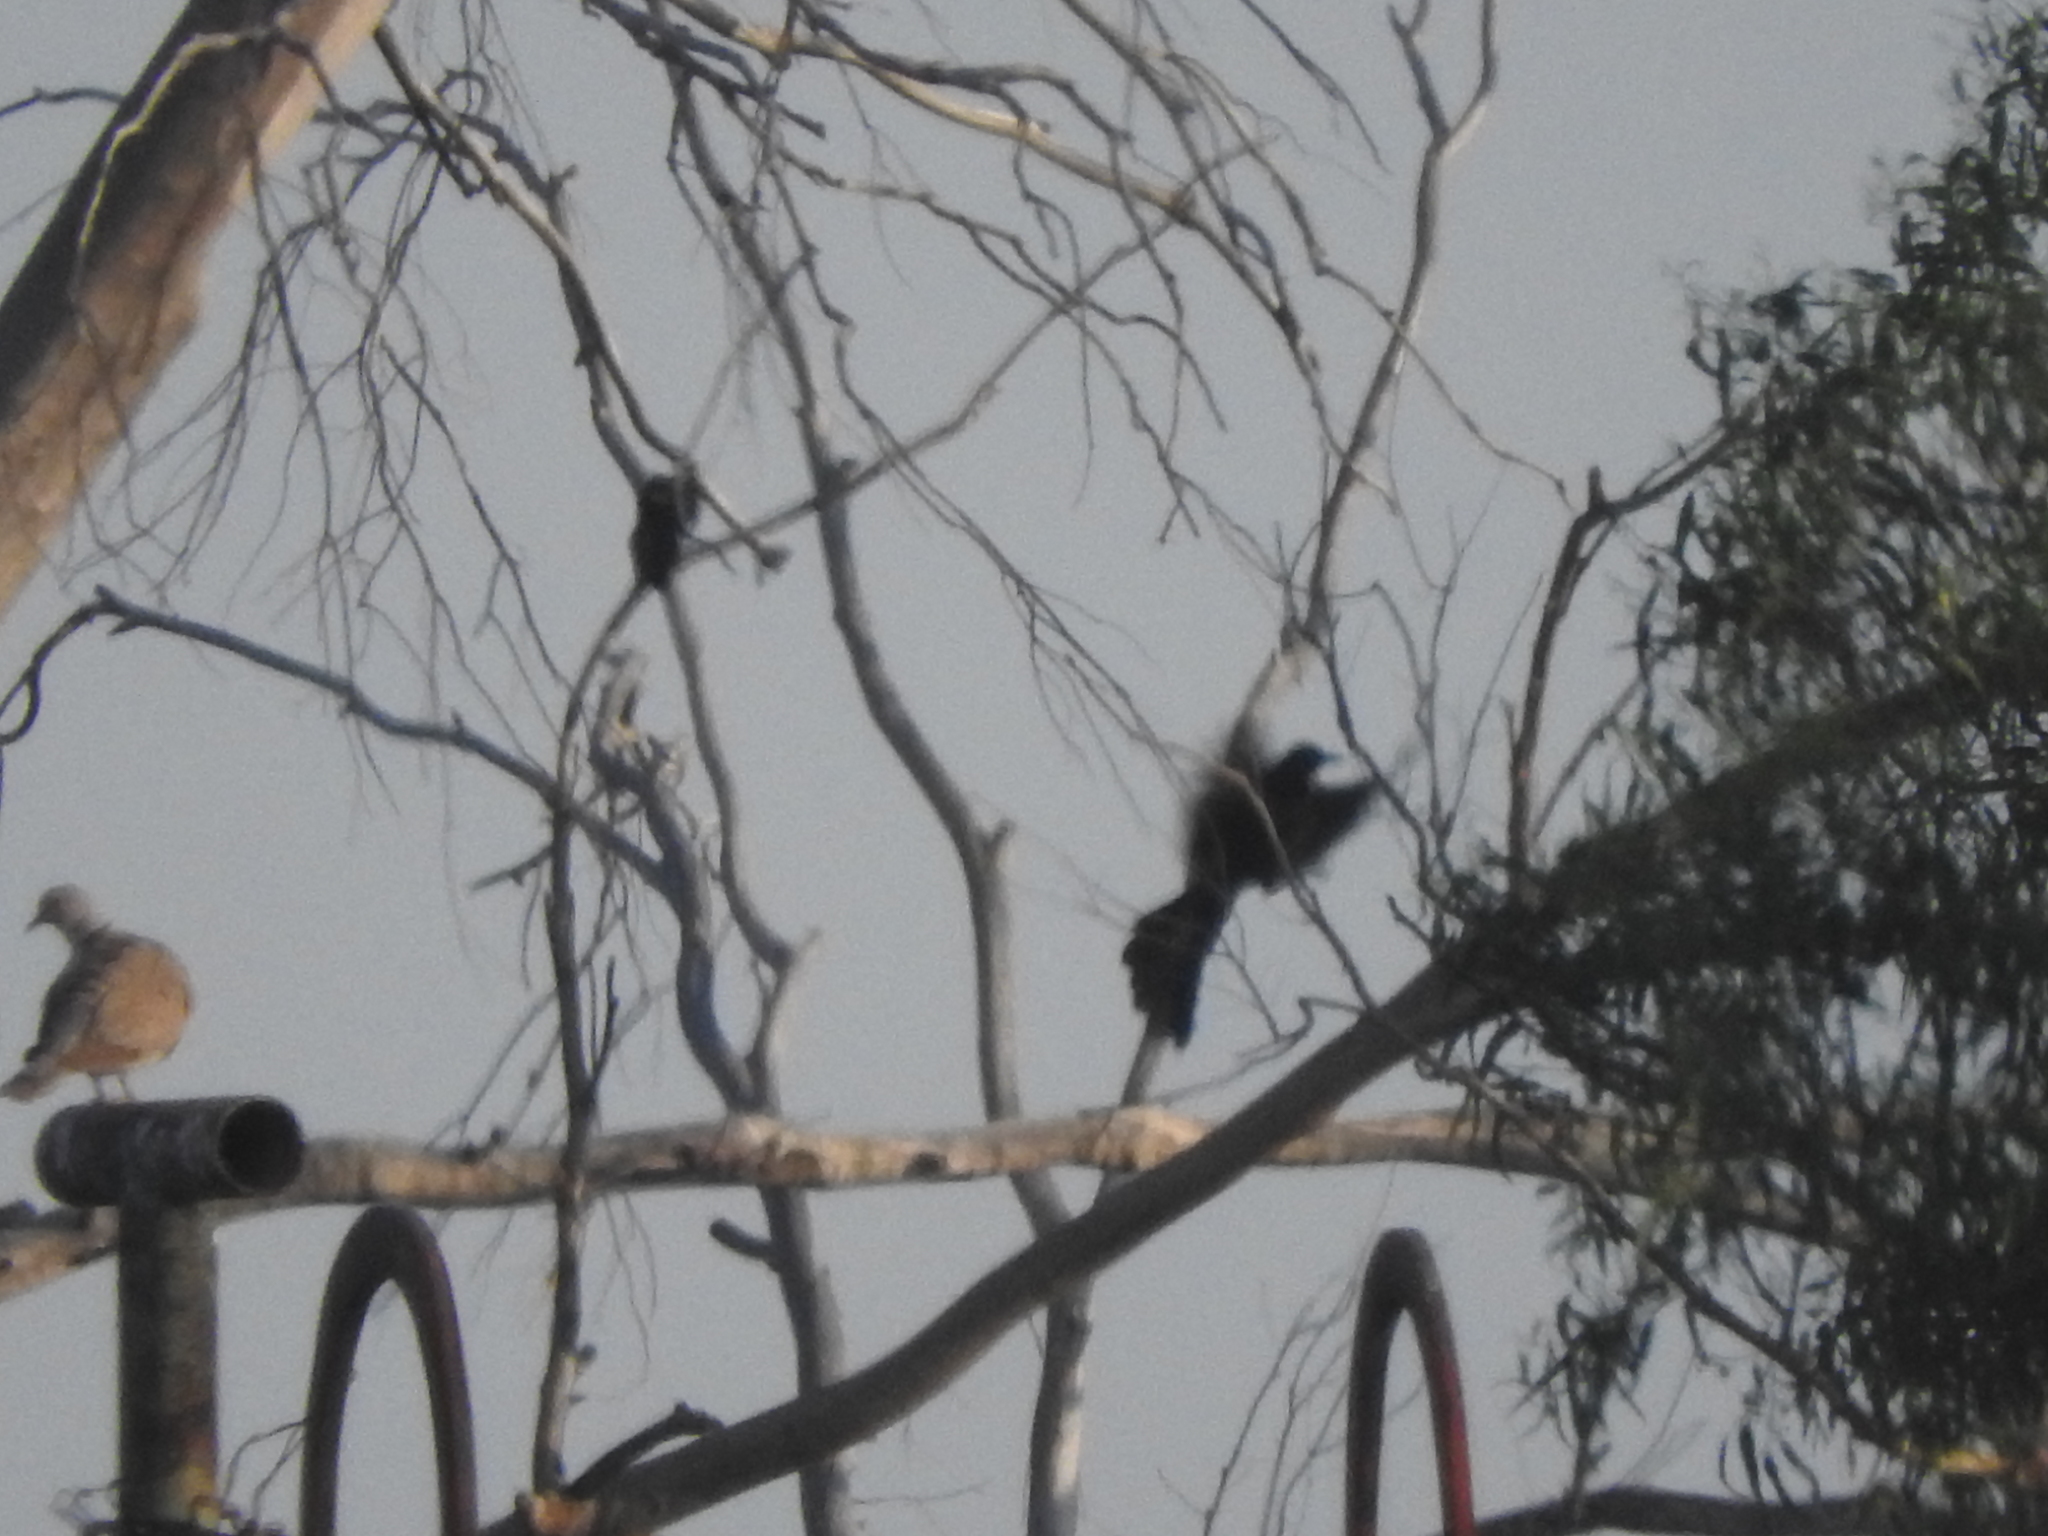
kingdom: Animalia
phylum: Chordata
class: Aves
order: Passeriformes
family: Icteridae
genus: Quiscalus
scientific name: Quiscalus mexicanus
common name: Great-tailed grackle
